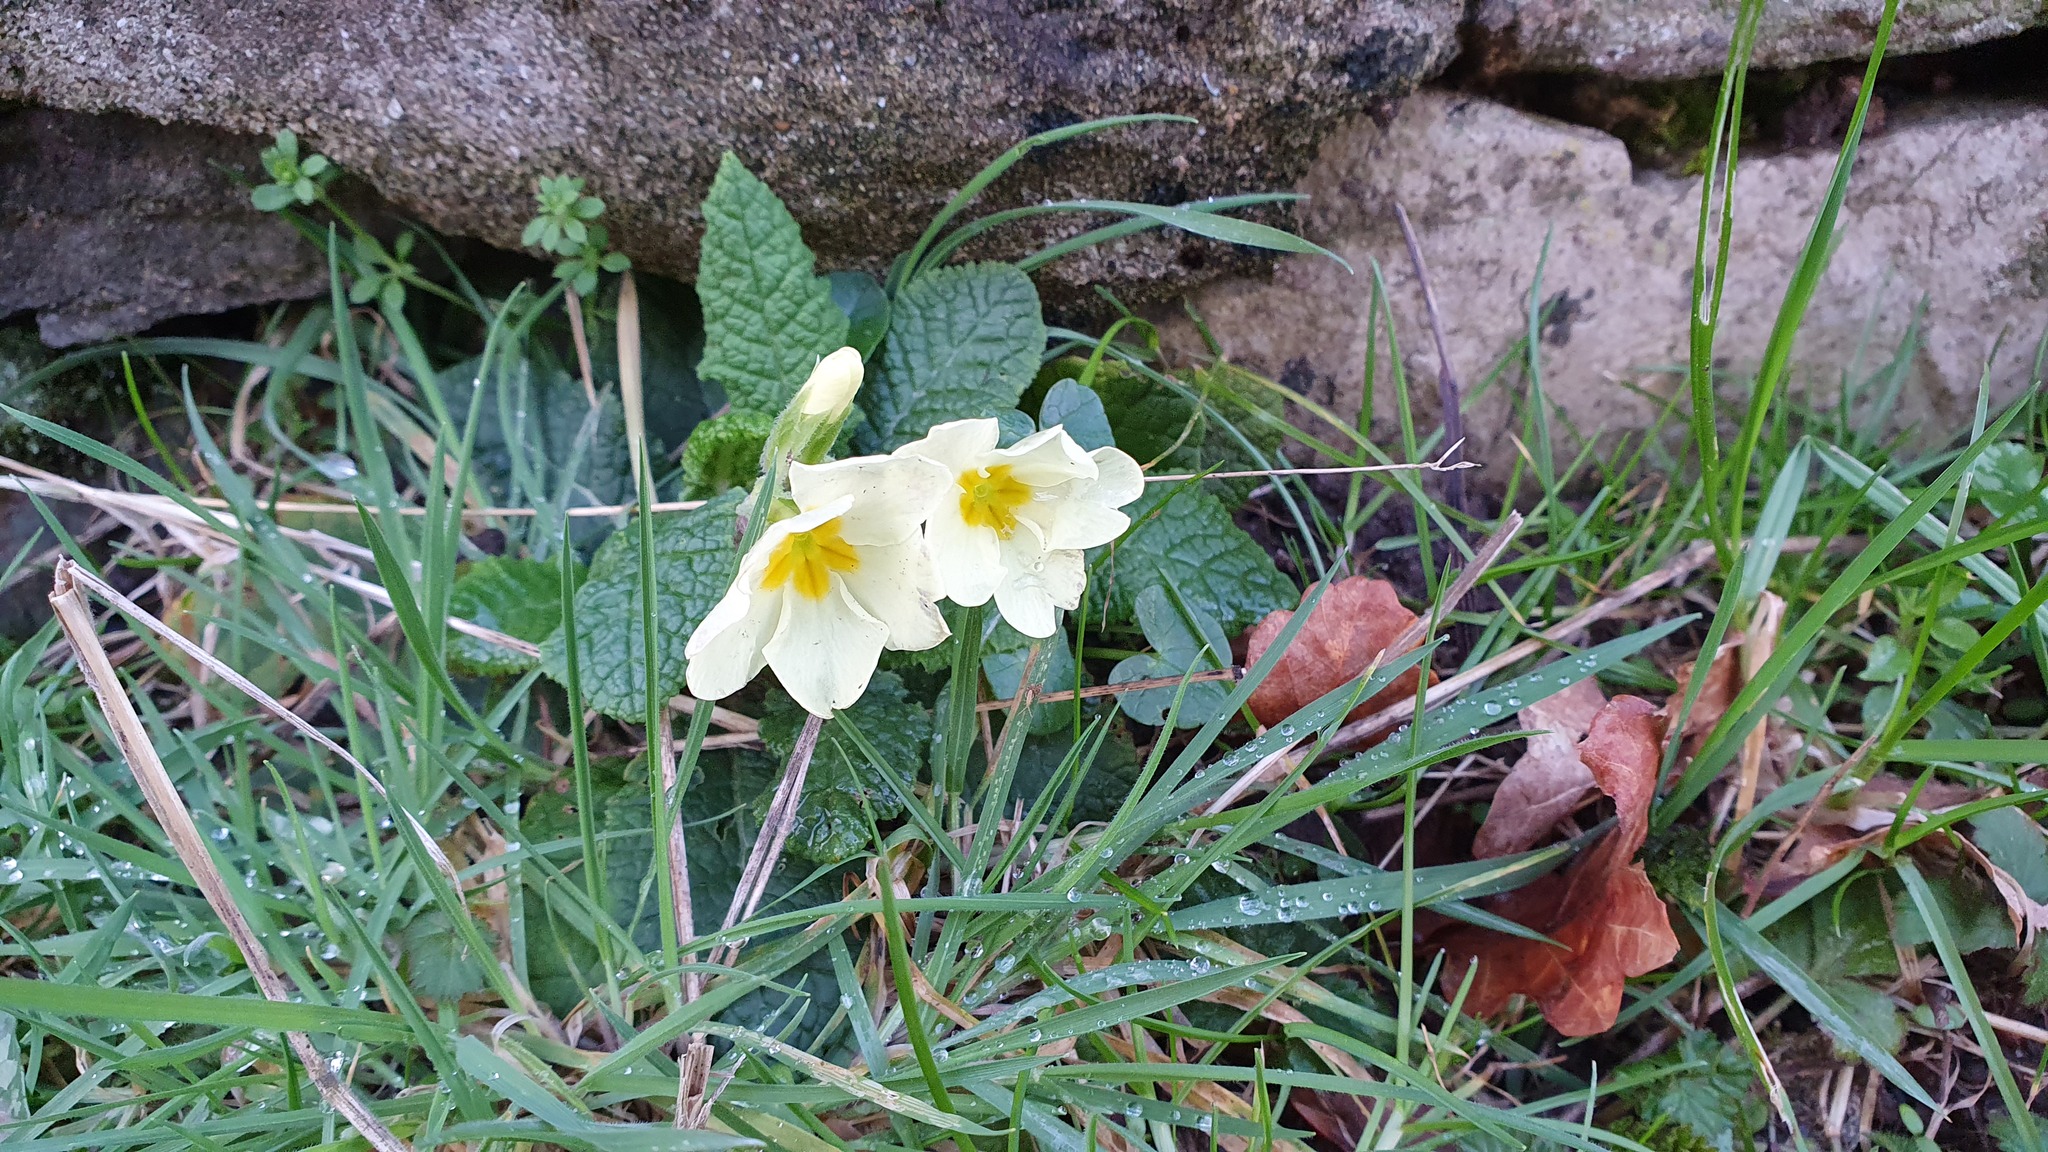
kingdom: Plantae
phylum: Tracheophyta
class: Magnoliopsida
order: Ericales
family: Primulaceae
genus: Primula
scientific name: Primula vulgaris
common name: Primrose
